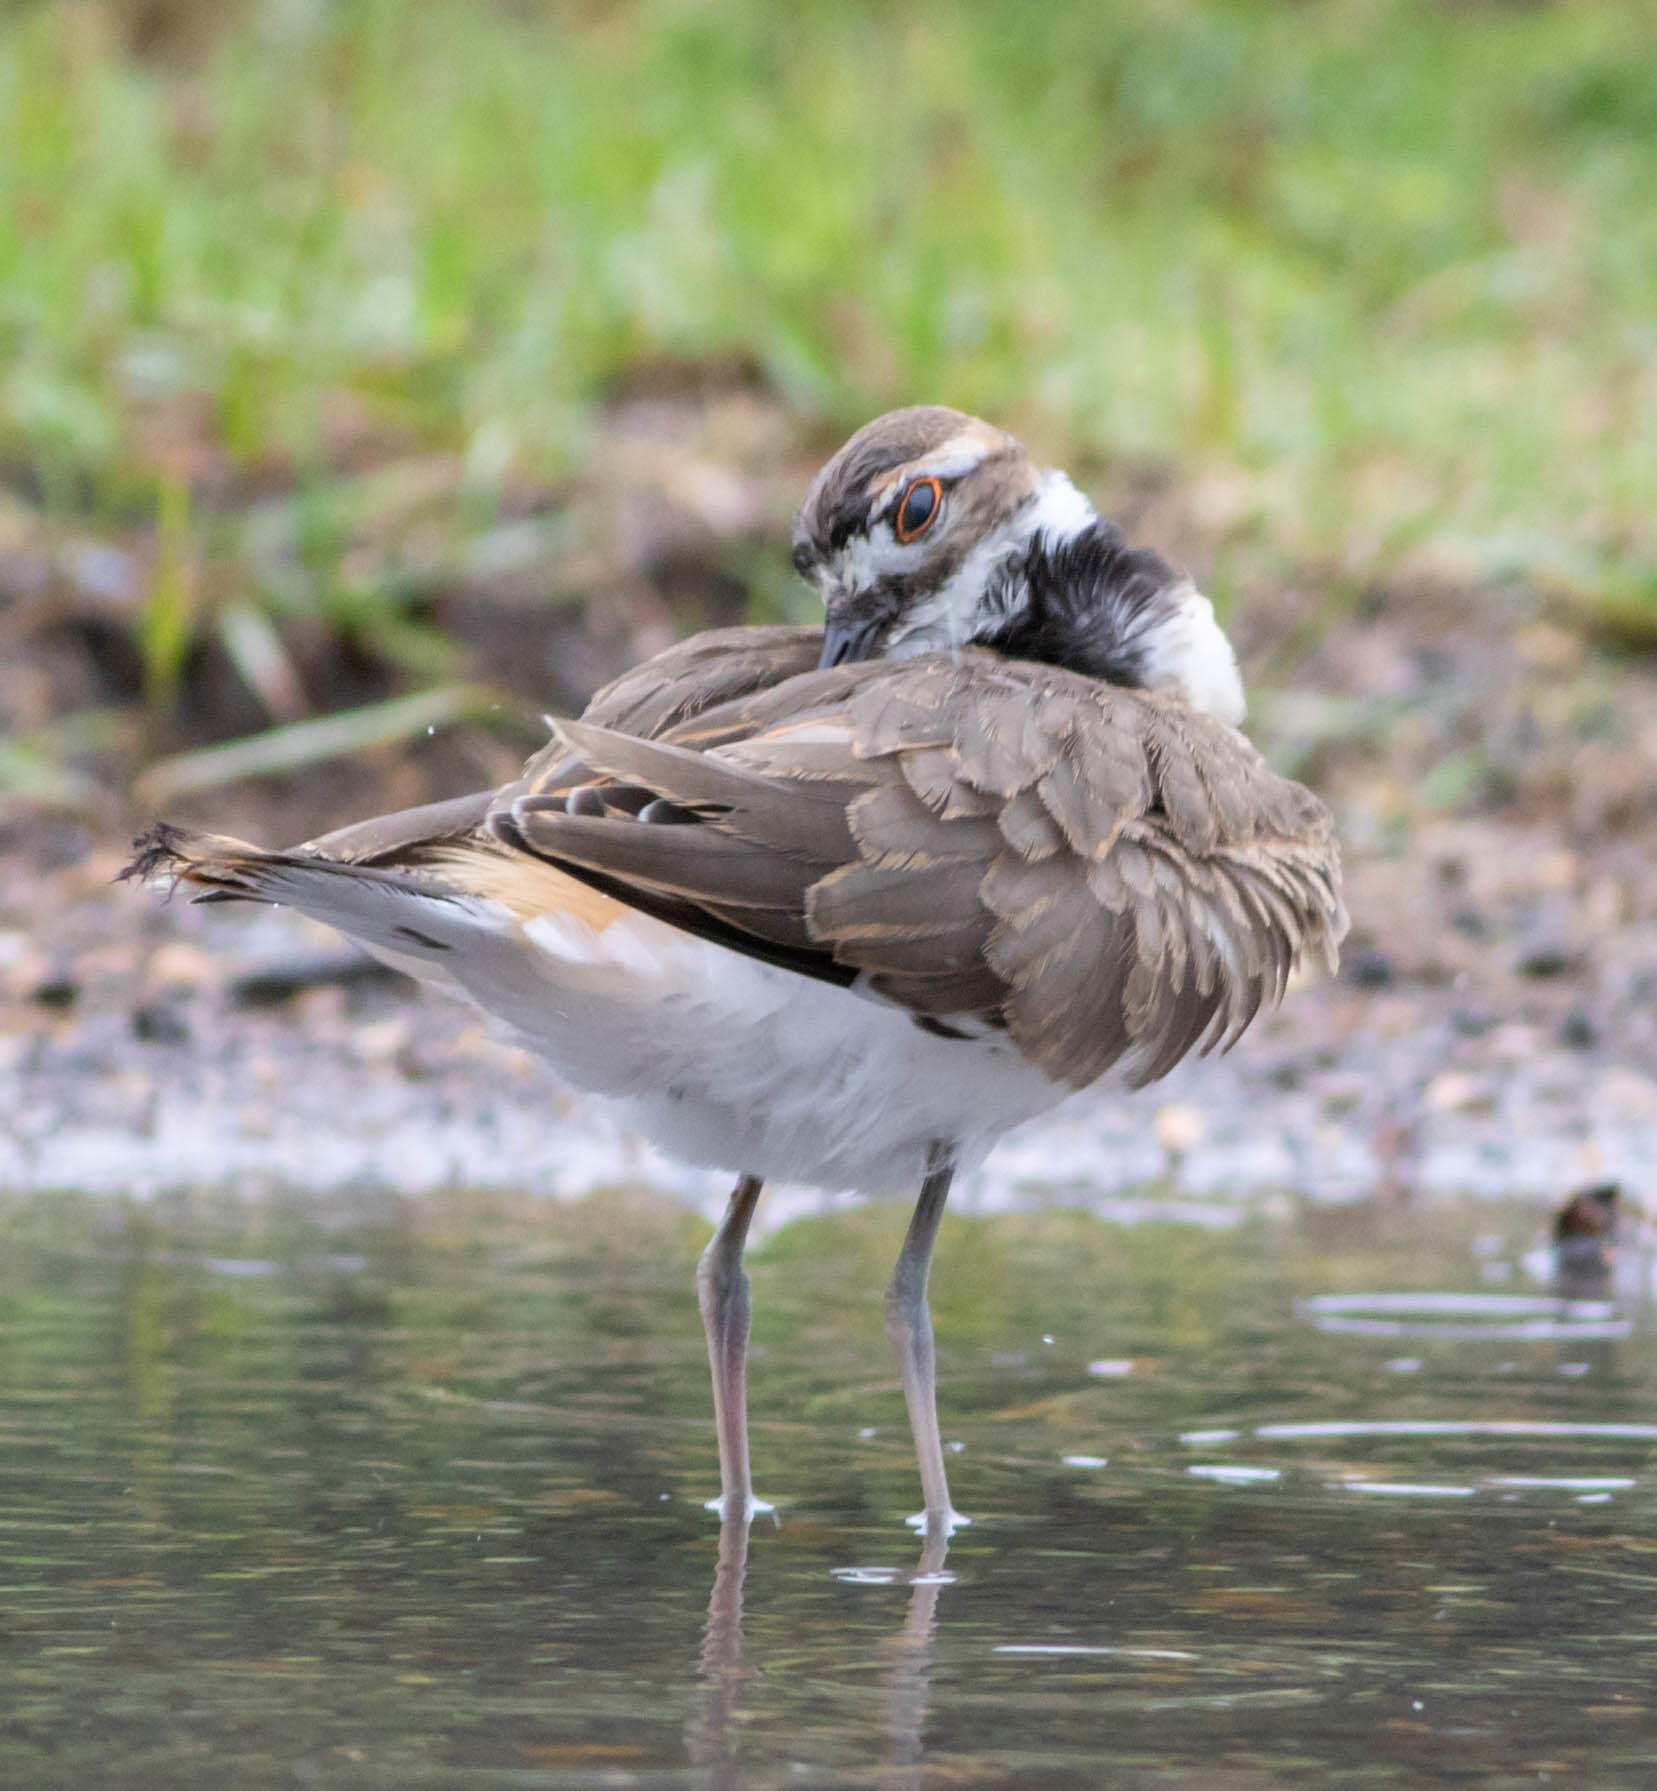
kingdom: Animalia
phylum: Chordata
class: Aves
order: Charadriiformes
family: Charadriidae
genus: Charadrius
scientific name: Charadrius vociferus
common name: Killdeer
